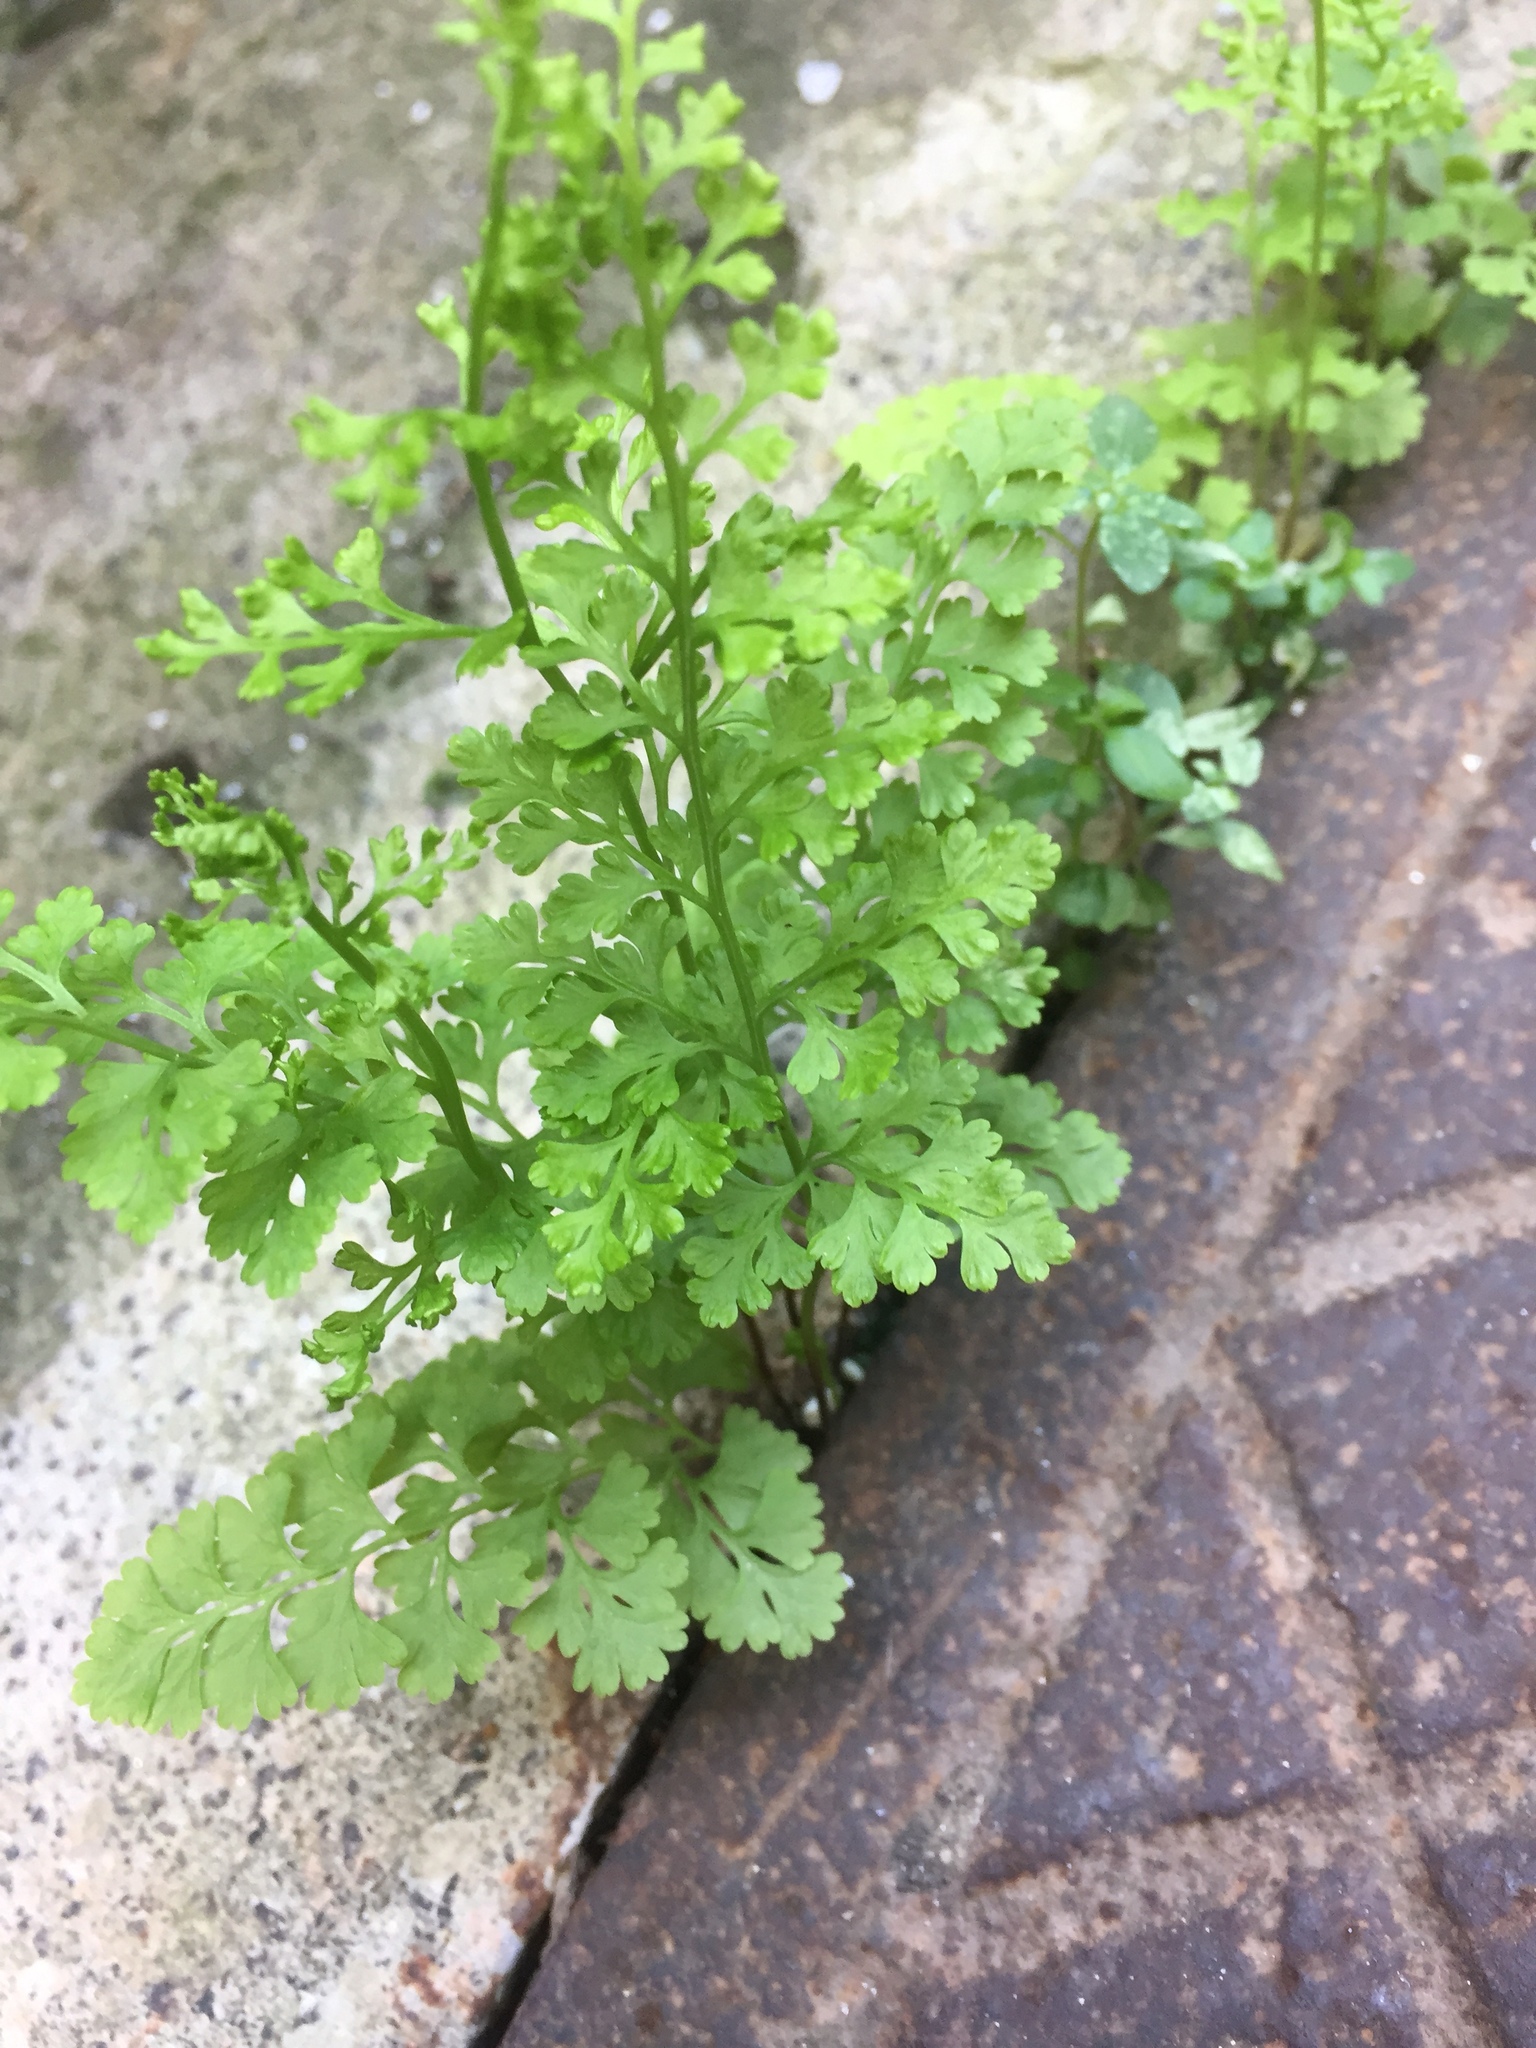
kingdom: Plantae
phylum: Tracheophyta
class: Polypodiopsida
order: Polypodiales
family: Pteridaceae
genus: Anogramma
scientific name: Anogramma leptophylla
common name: Jersey fern
